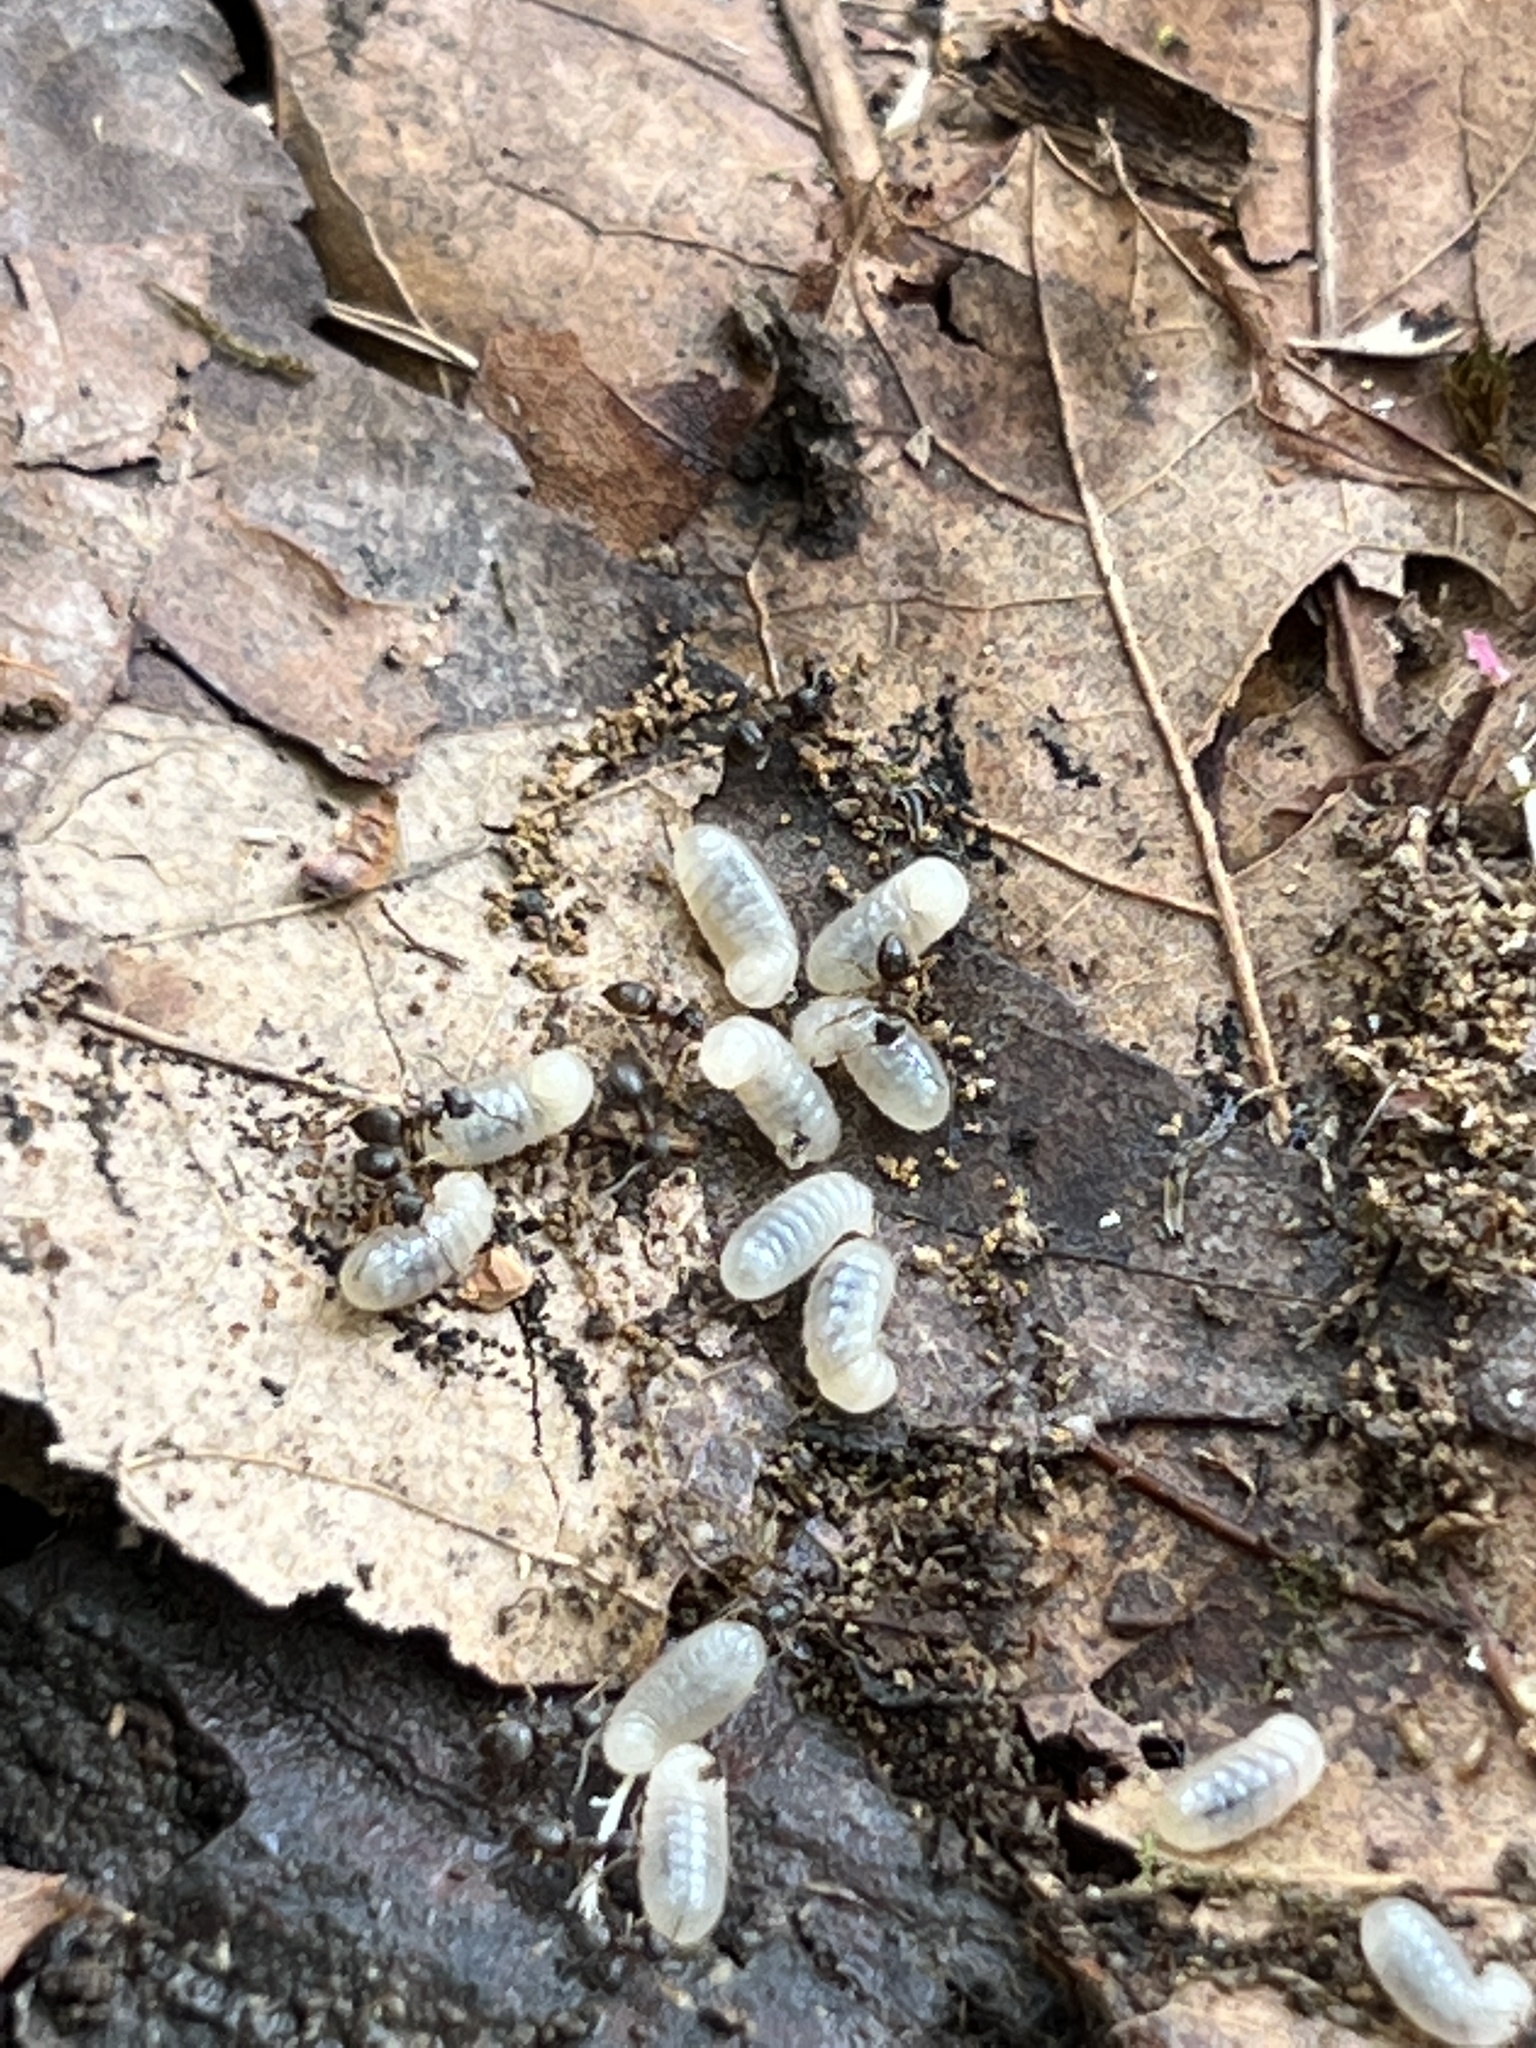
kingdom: Animalia
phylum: Arthropoda
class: Insecta
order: Hymenoptera
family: Formicidae
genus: Lasius
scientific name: Lasius americanus
